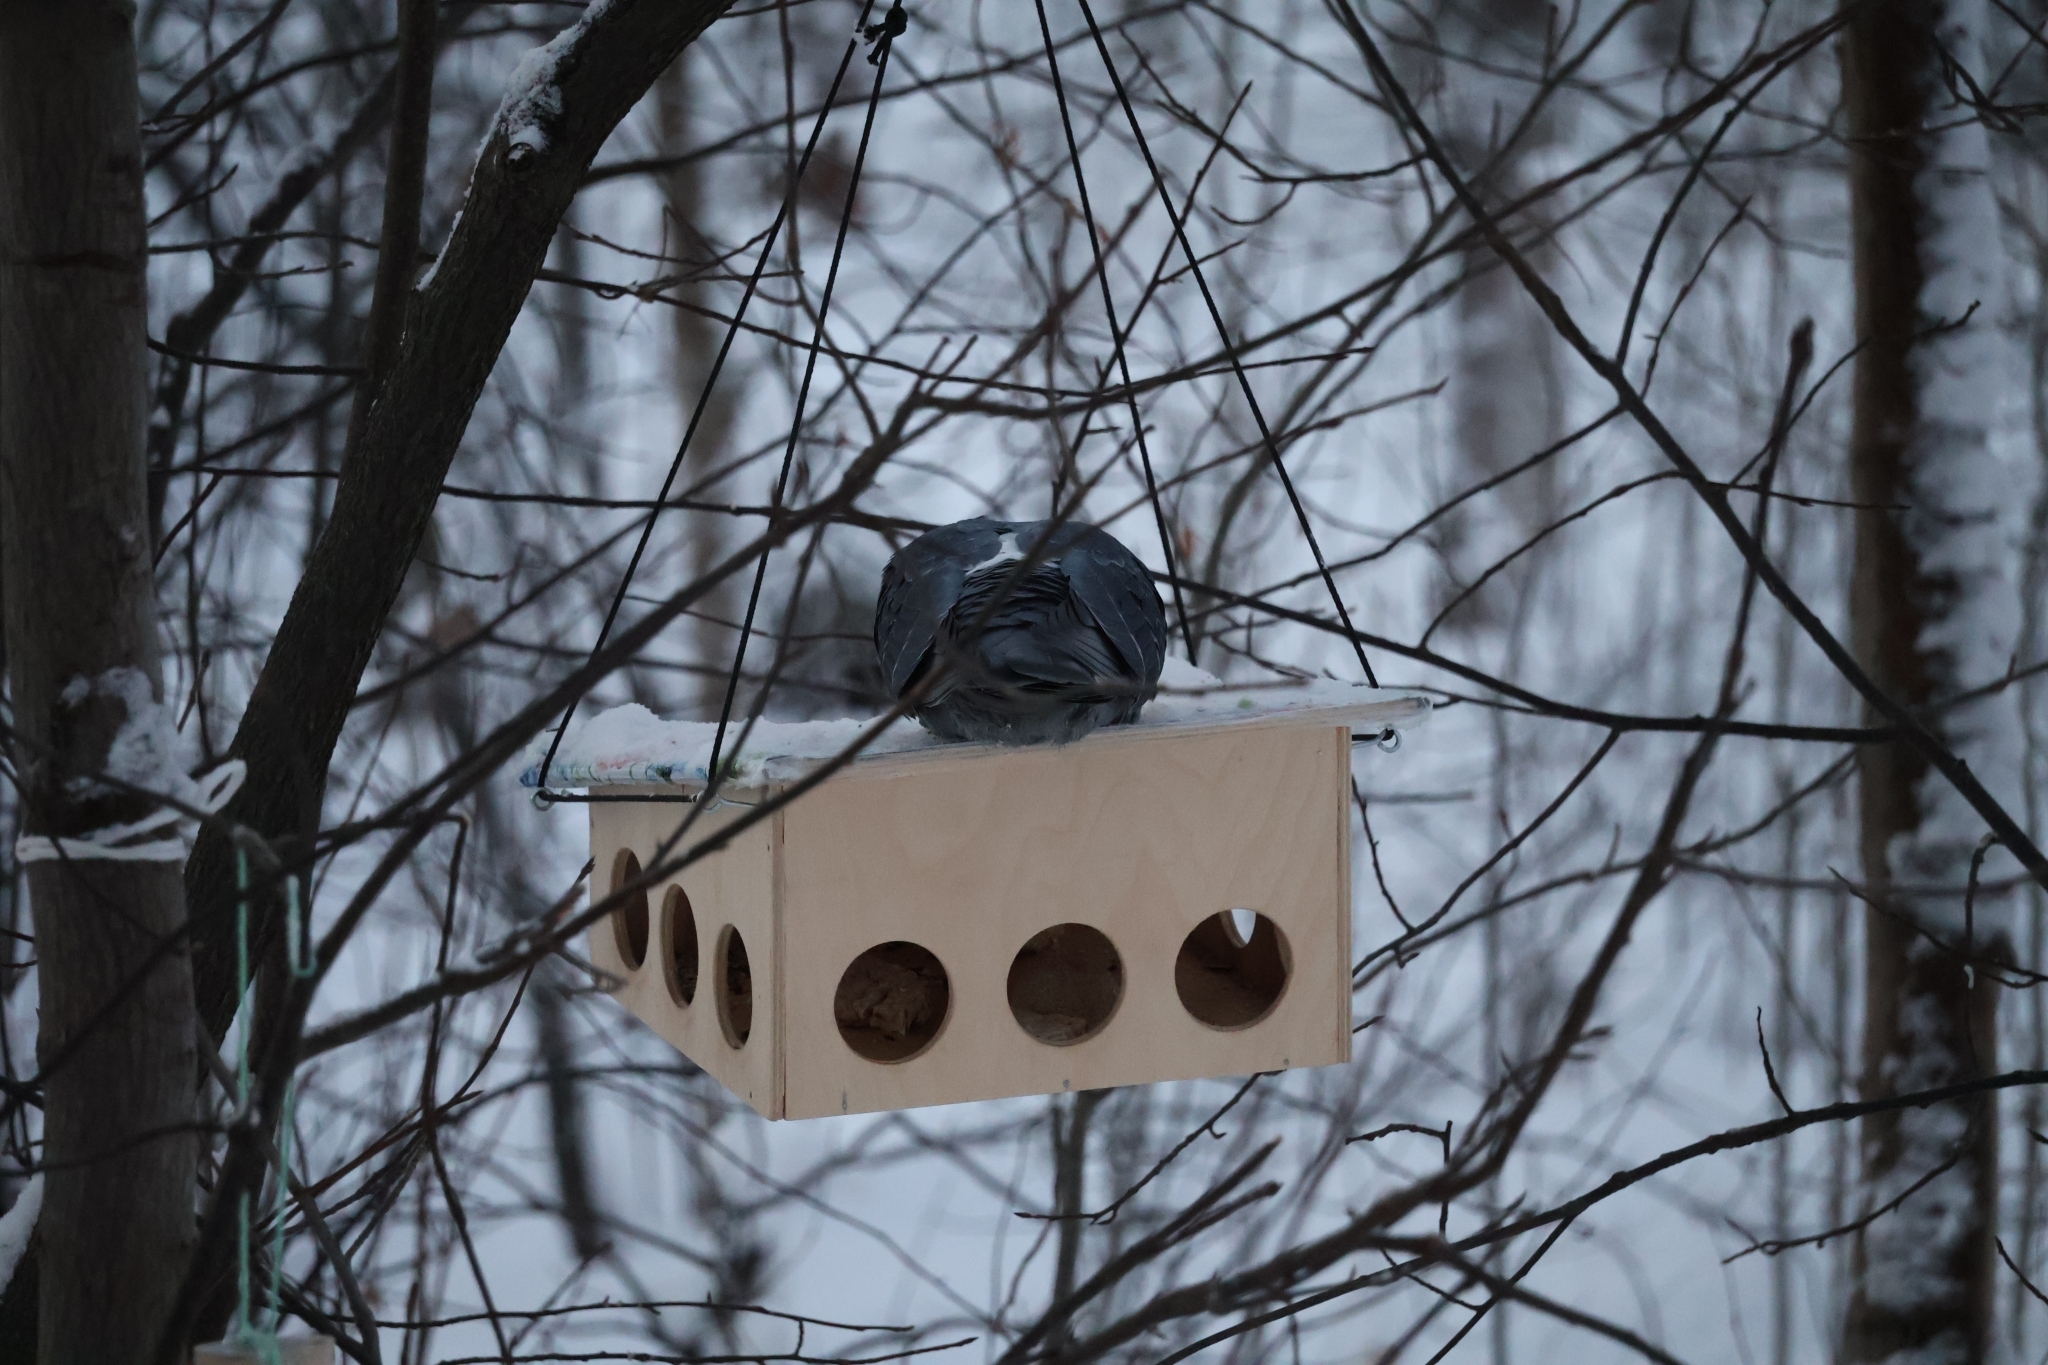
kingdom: Animalia
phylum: Chordata
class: Aves
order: Columbiformes
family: Columbidae
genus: Columba
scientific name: Columba livia
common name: Rock pigeon
